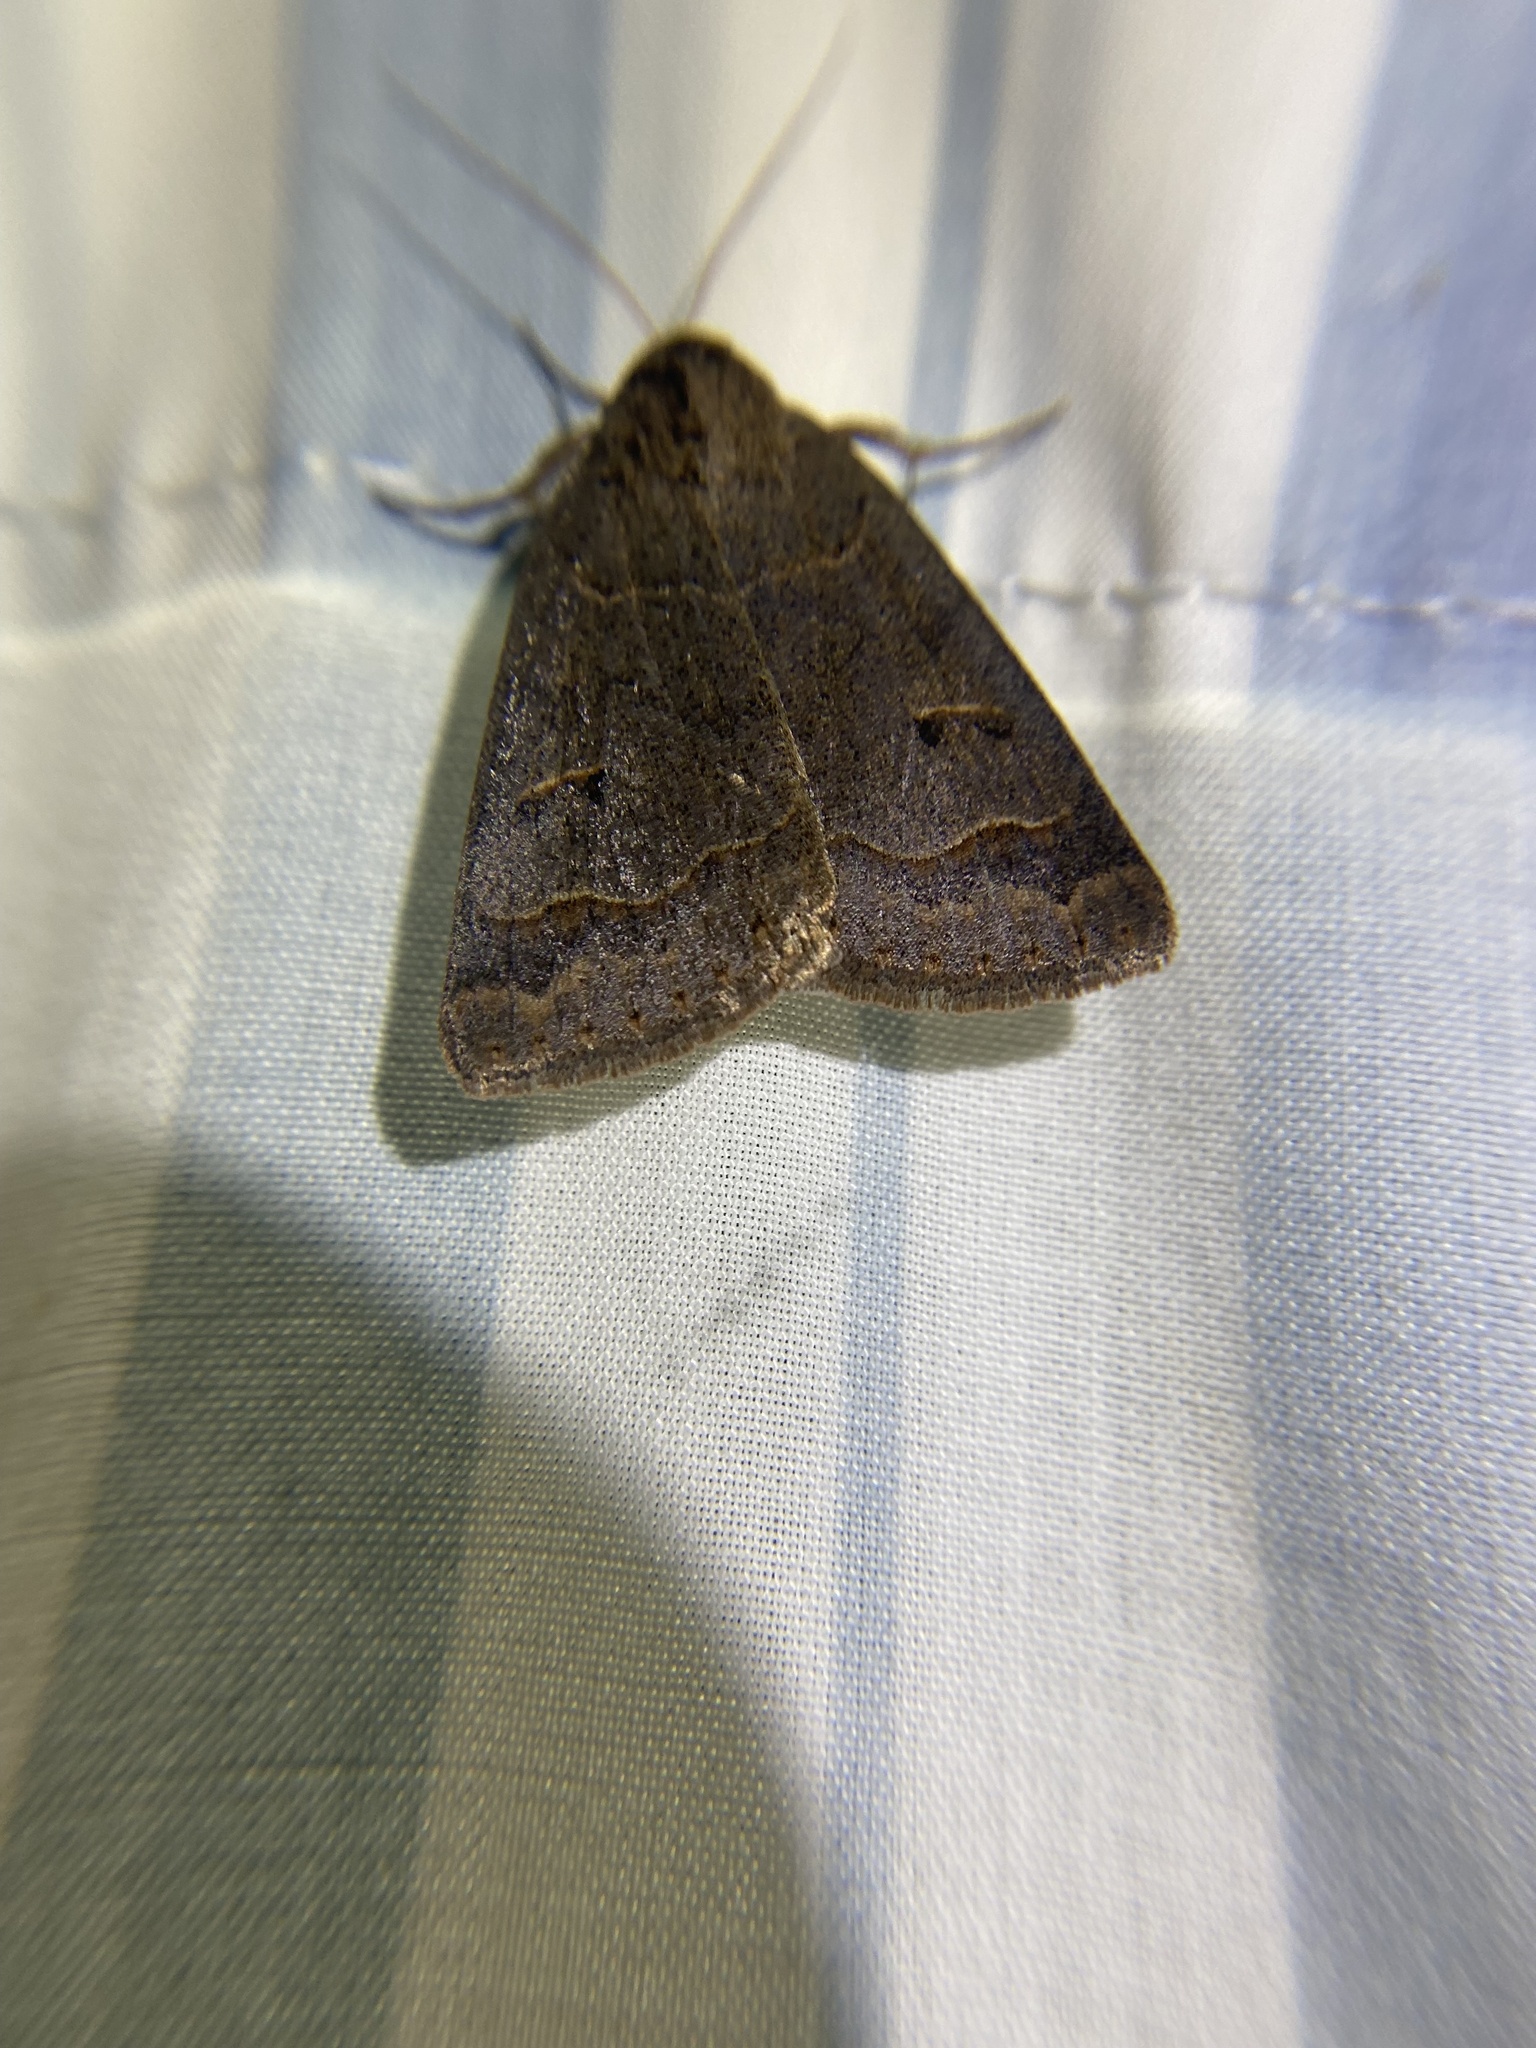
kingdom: Animalia
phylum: Arthropoda
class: Insecta
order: Lepidoptera
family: Erebidae
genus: Phoberia
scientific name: Phoberia atomaris
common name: Common oak moth
